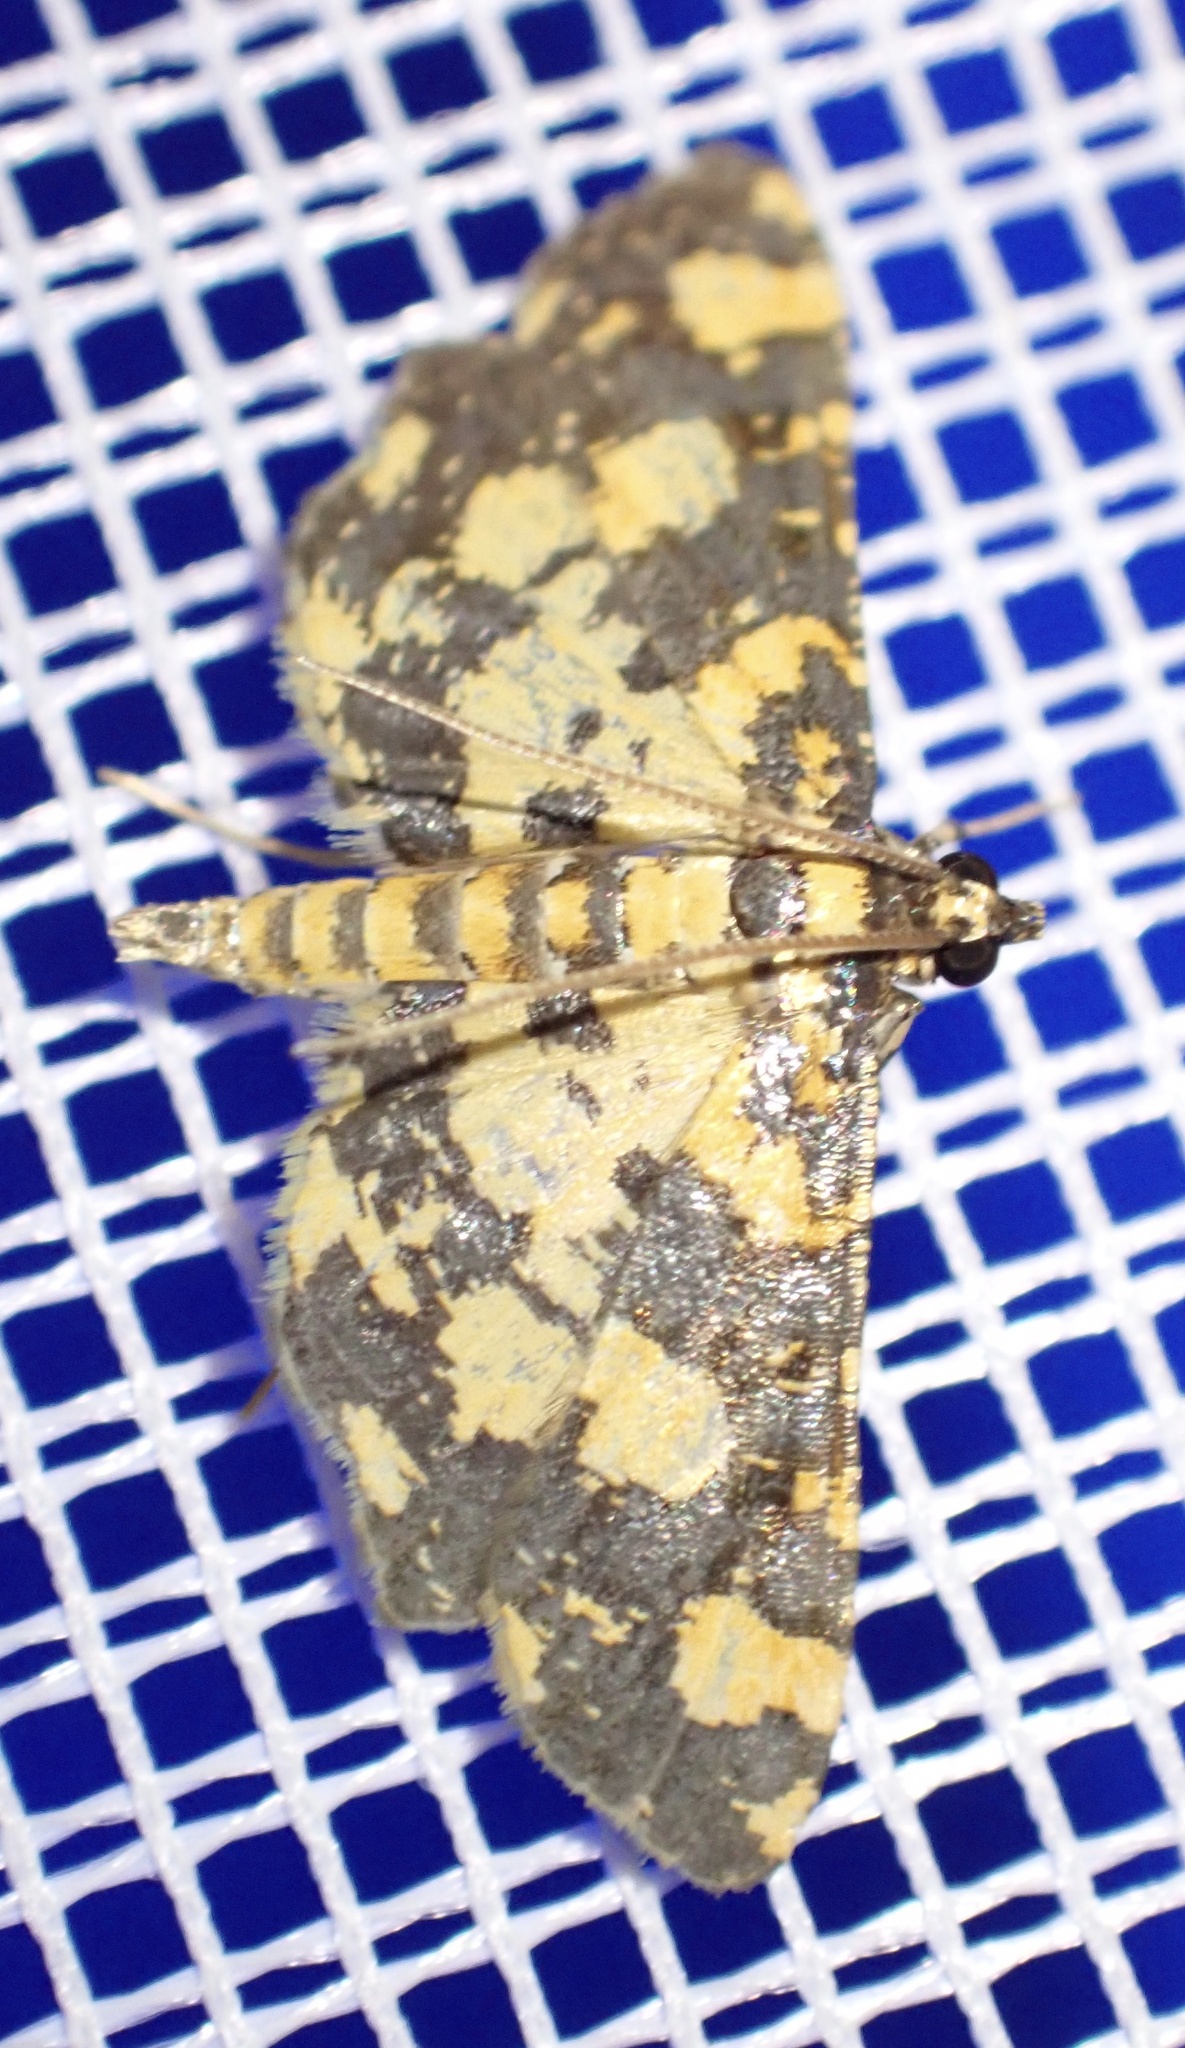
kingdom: Animalia
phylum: Arthropoda
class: Insecta
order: Lepidoptera
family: Crambidae
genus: Eurrhyparodes
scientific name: Eurrhyparodes tricoloralis
